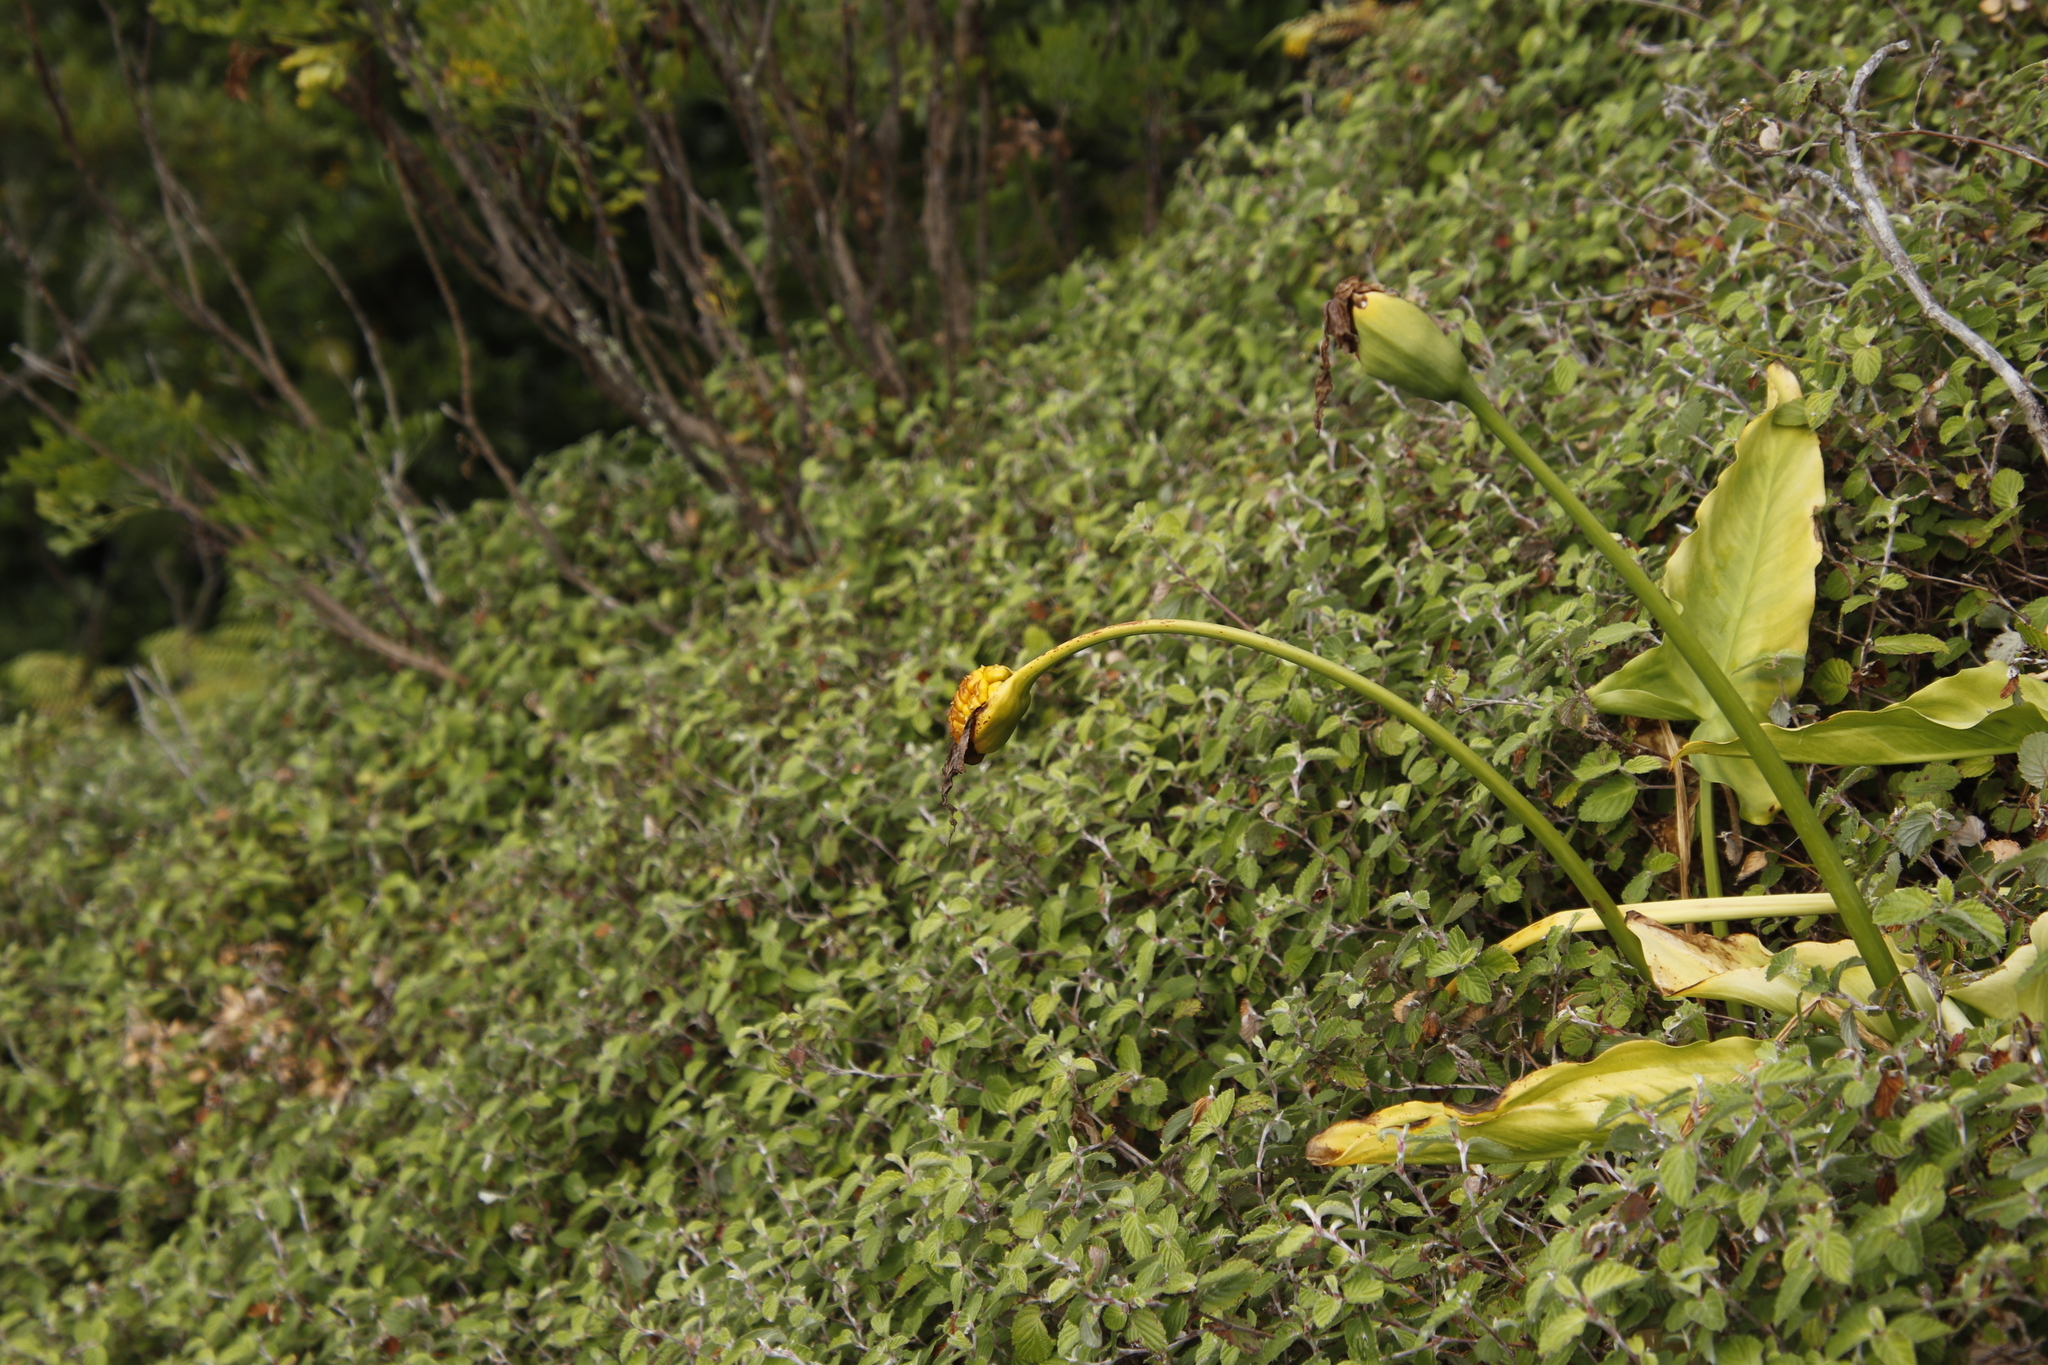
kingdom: Plantae
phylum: Tracheophyta
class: Magnoliopsida
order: Rosales
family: Rosaceae
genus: Cliffortia
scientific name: Cliffortia odorata
